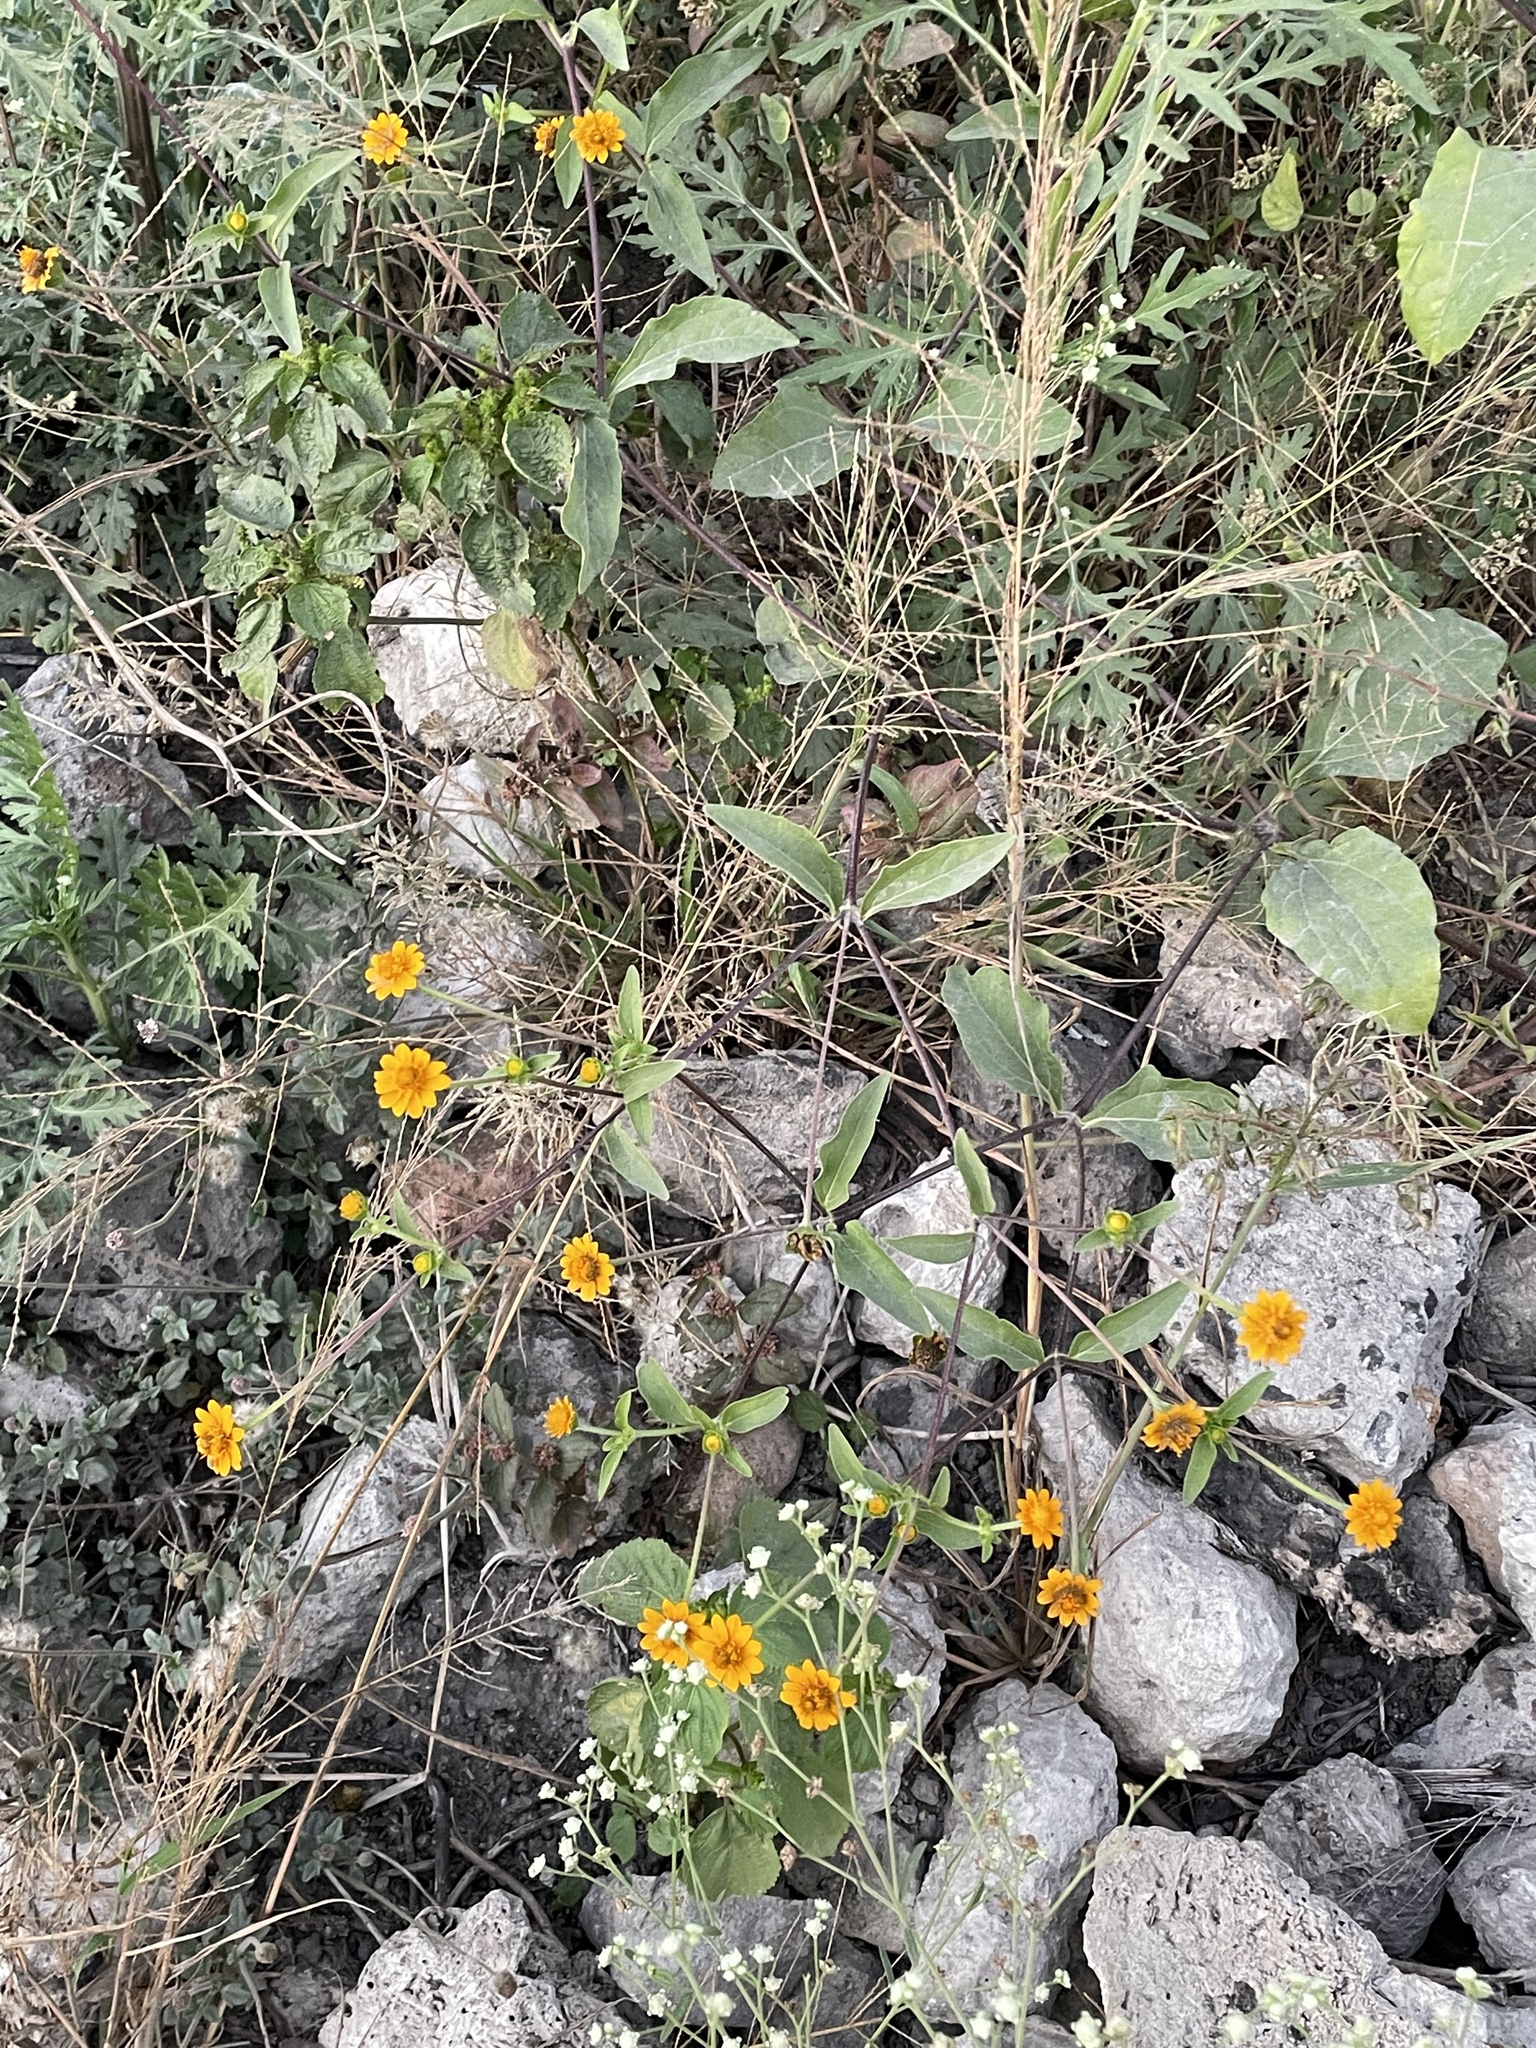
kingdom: Plantae
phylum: Tracheophyta
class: Magnoliopsida
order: Asterales
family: Asteraceae
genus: Melampodium
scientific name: Melampodium divaricatum
